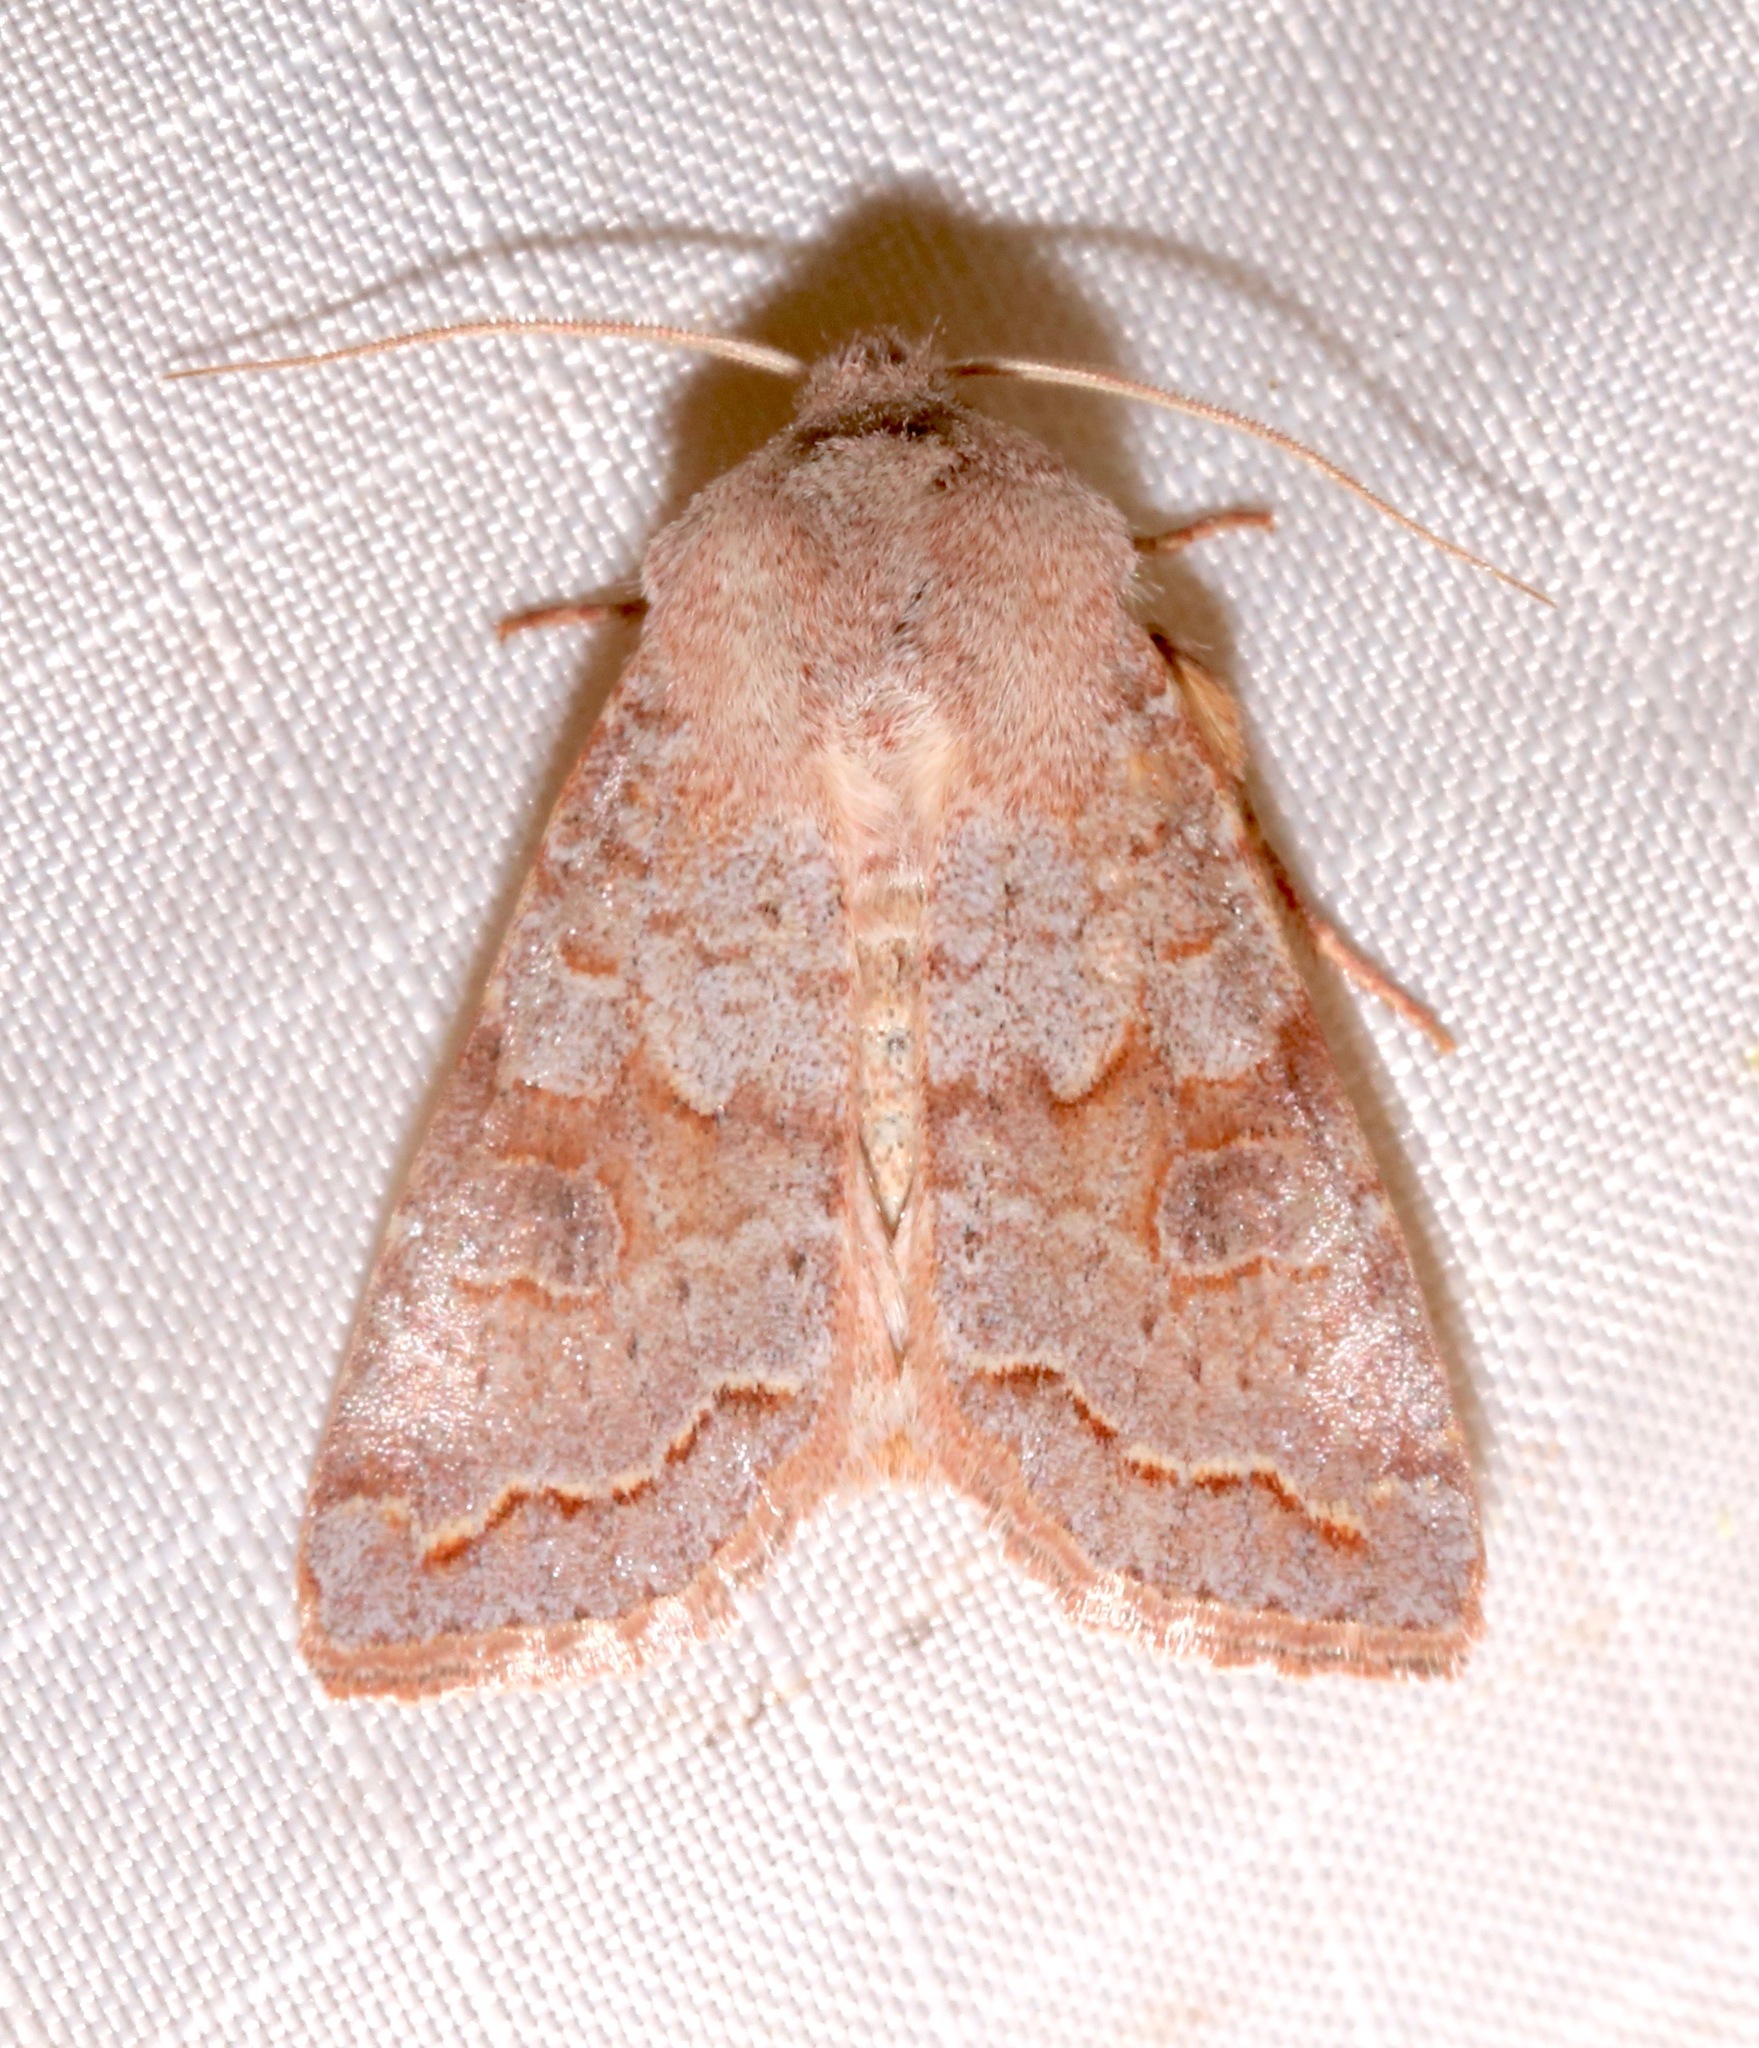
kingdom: Animalia
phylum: Arthropoda
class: Insecta
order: Lepidoptera
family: Noctuidae
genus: Orthosia
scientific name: Orthosia revicta
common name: Rusty whitesided caterpillar
